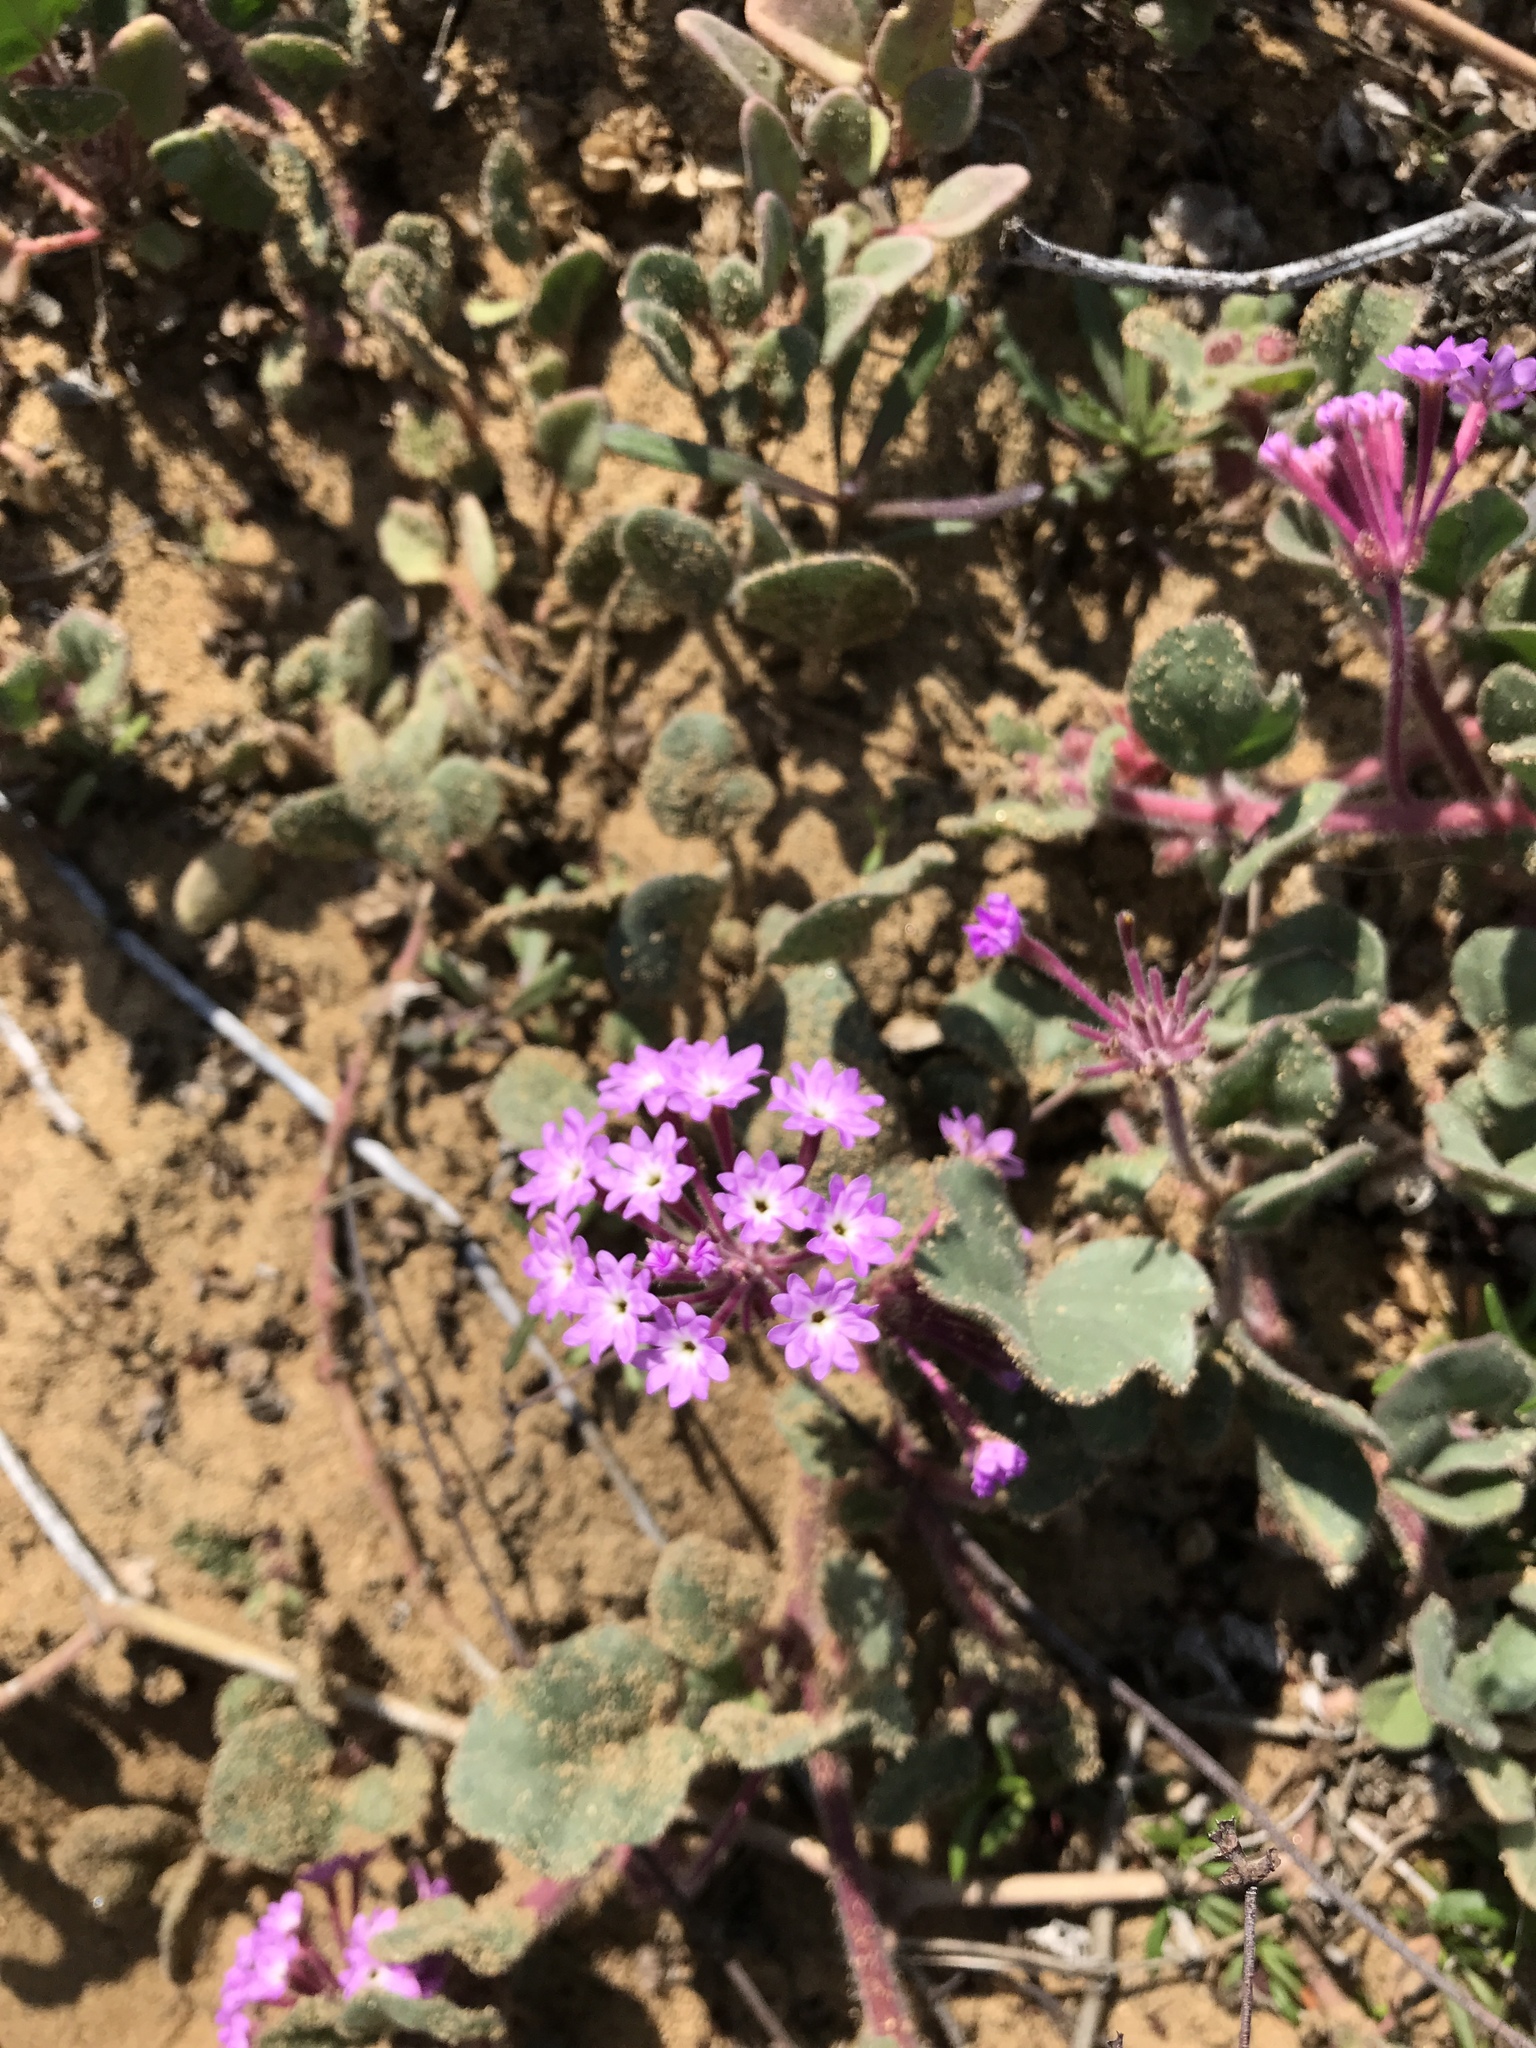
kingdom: Plantae
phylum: Tracheophyta
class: Magnoliopsida
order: Caryophyllales
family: Nyctaginaceae
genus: Abronia
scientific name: Abronia umbellata
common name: Sand-verbena
